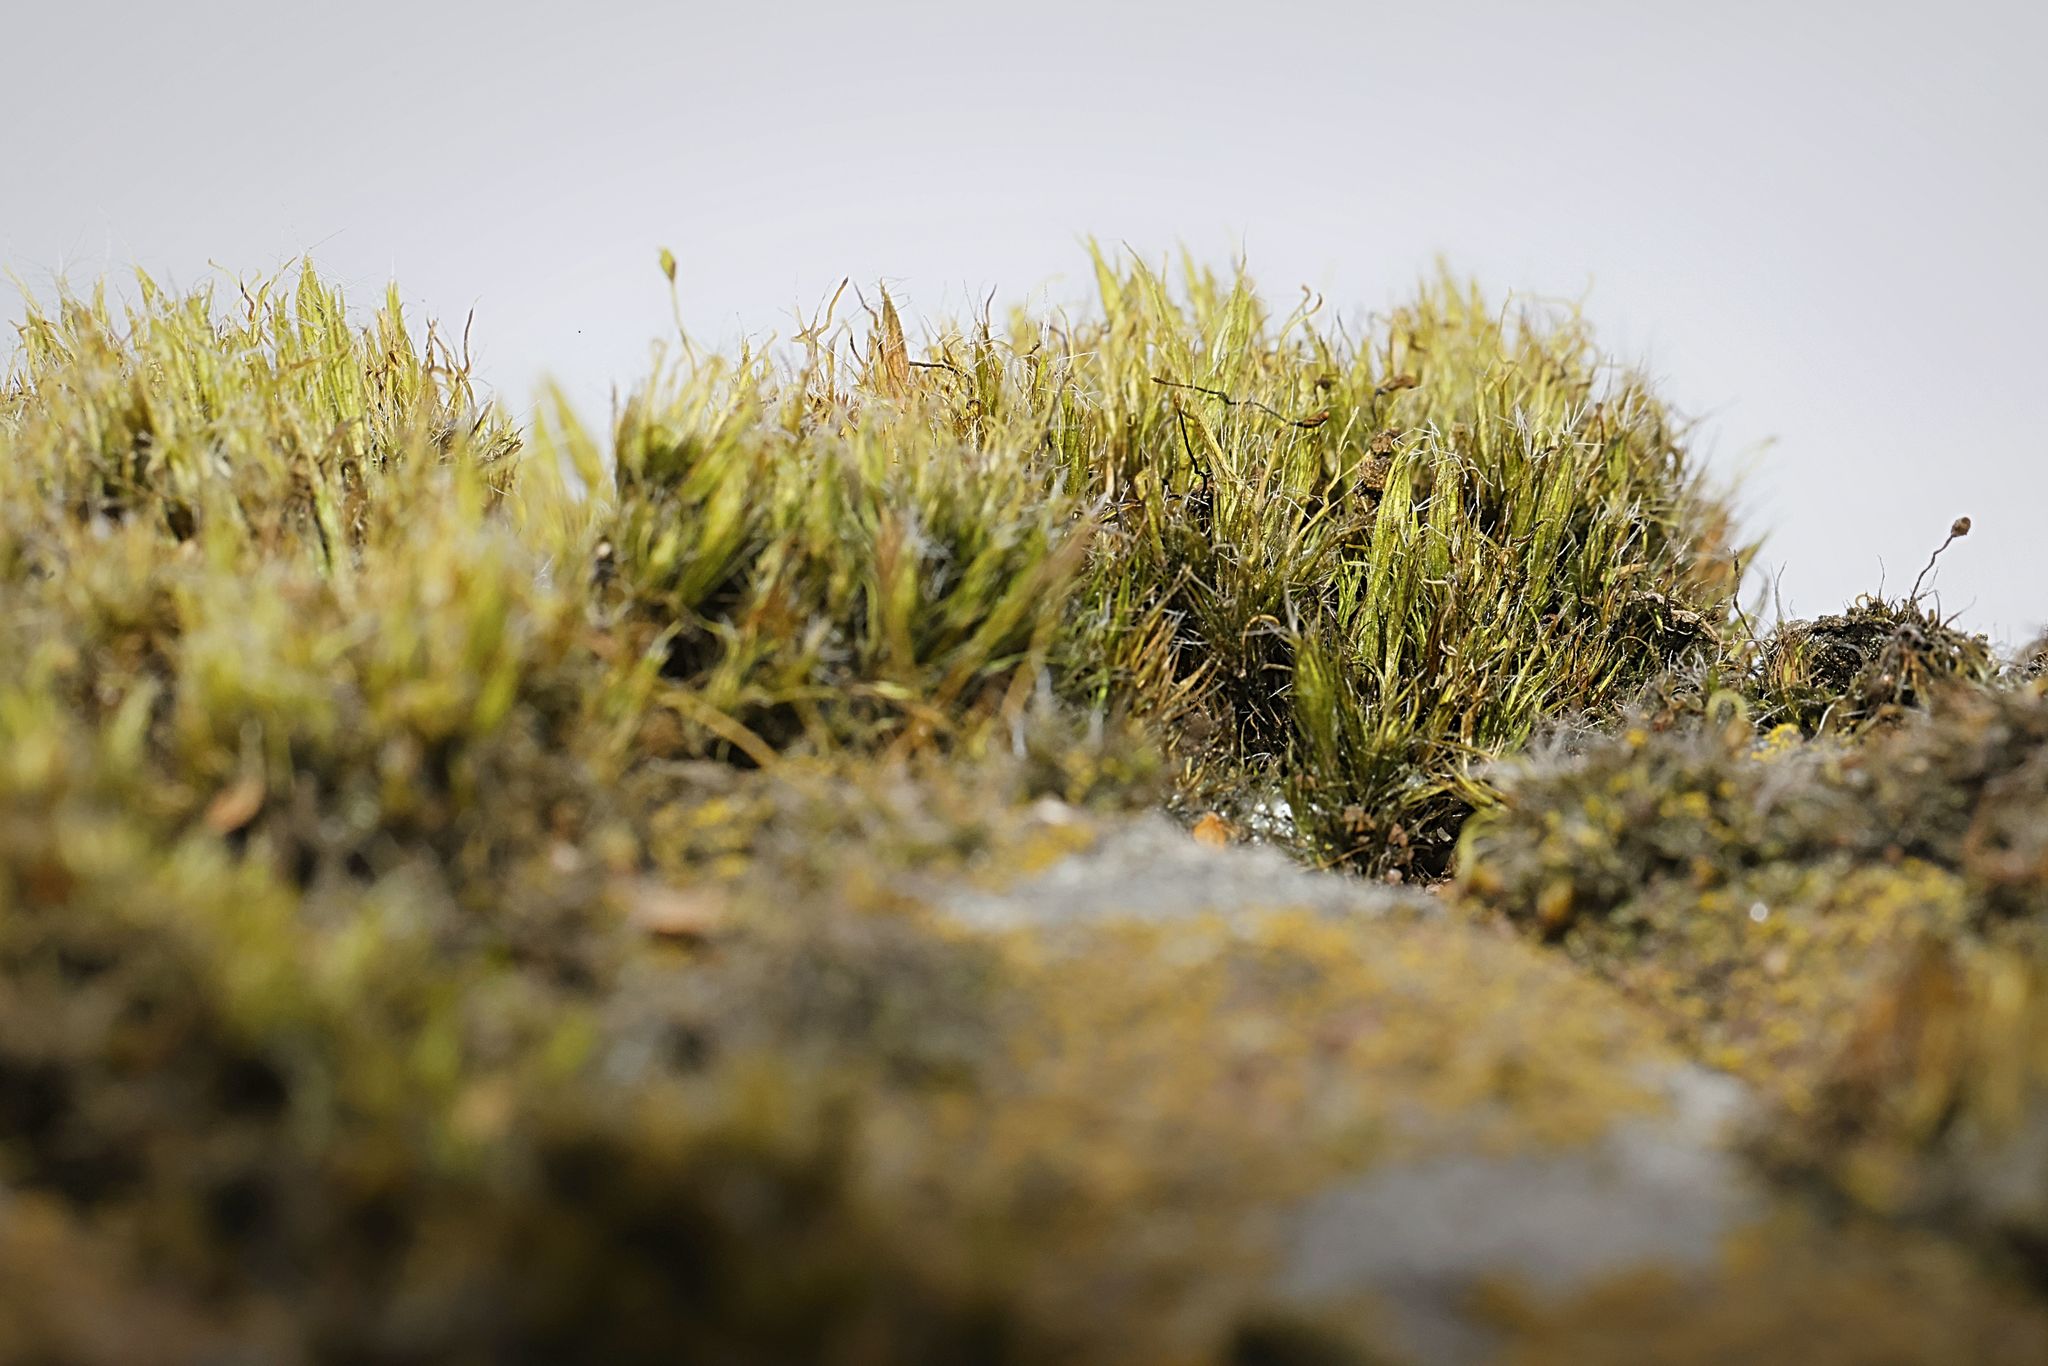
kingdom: Plantae
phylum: Bryophyta
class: Bryopsida
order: Dicranales
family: Leucobryaceae
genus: Campylopus
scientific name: Campylopus introflexus
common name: Heath star moss
